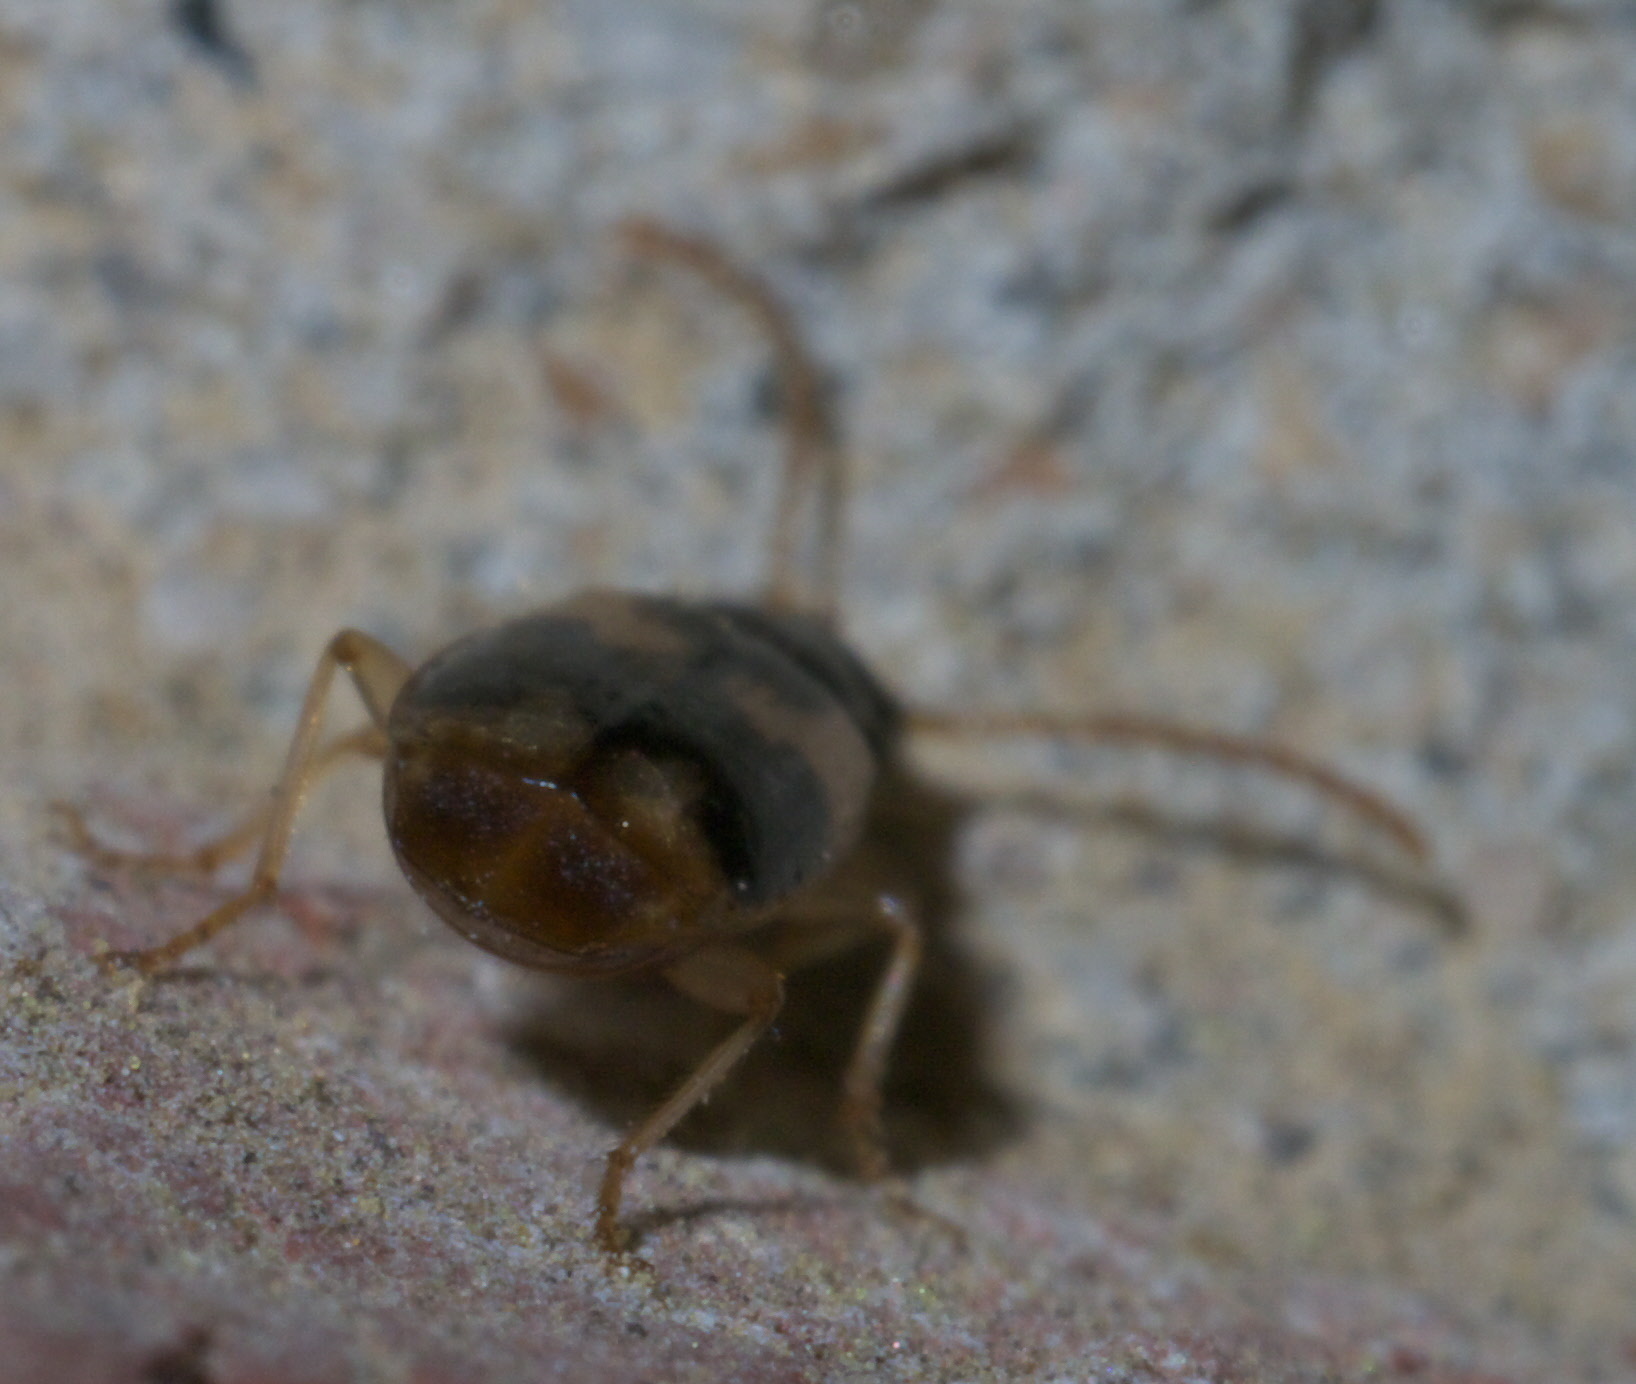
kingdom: Animalia
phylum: Arthropoda
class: Insecta
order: Coleoptera
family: Carabidae
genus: Lebia
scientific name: Lebia lobulata
